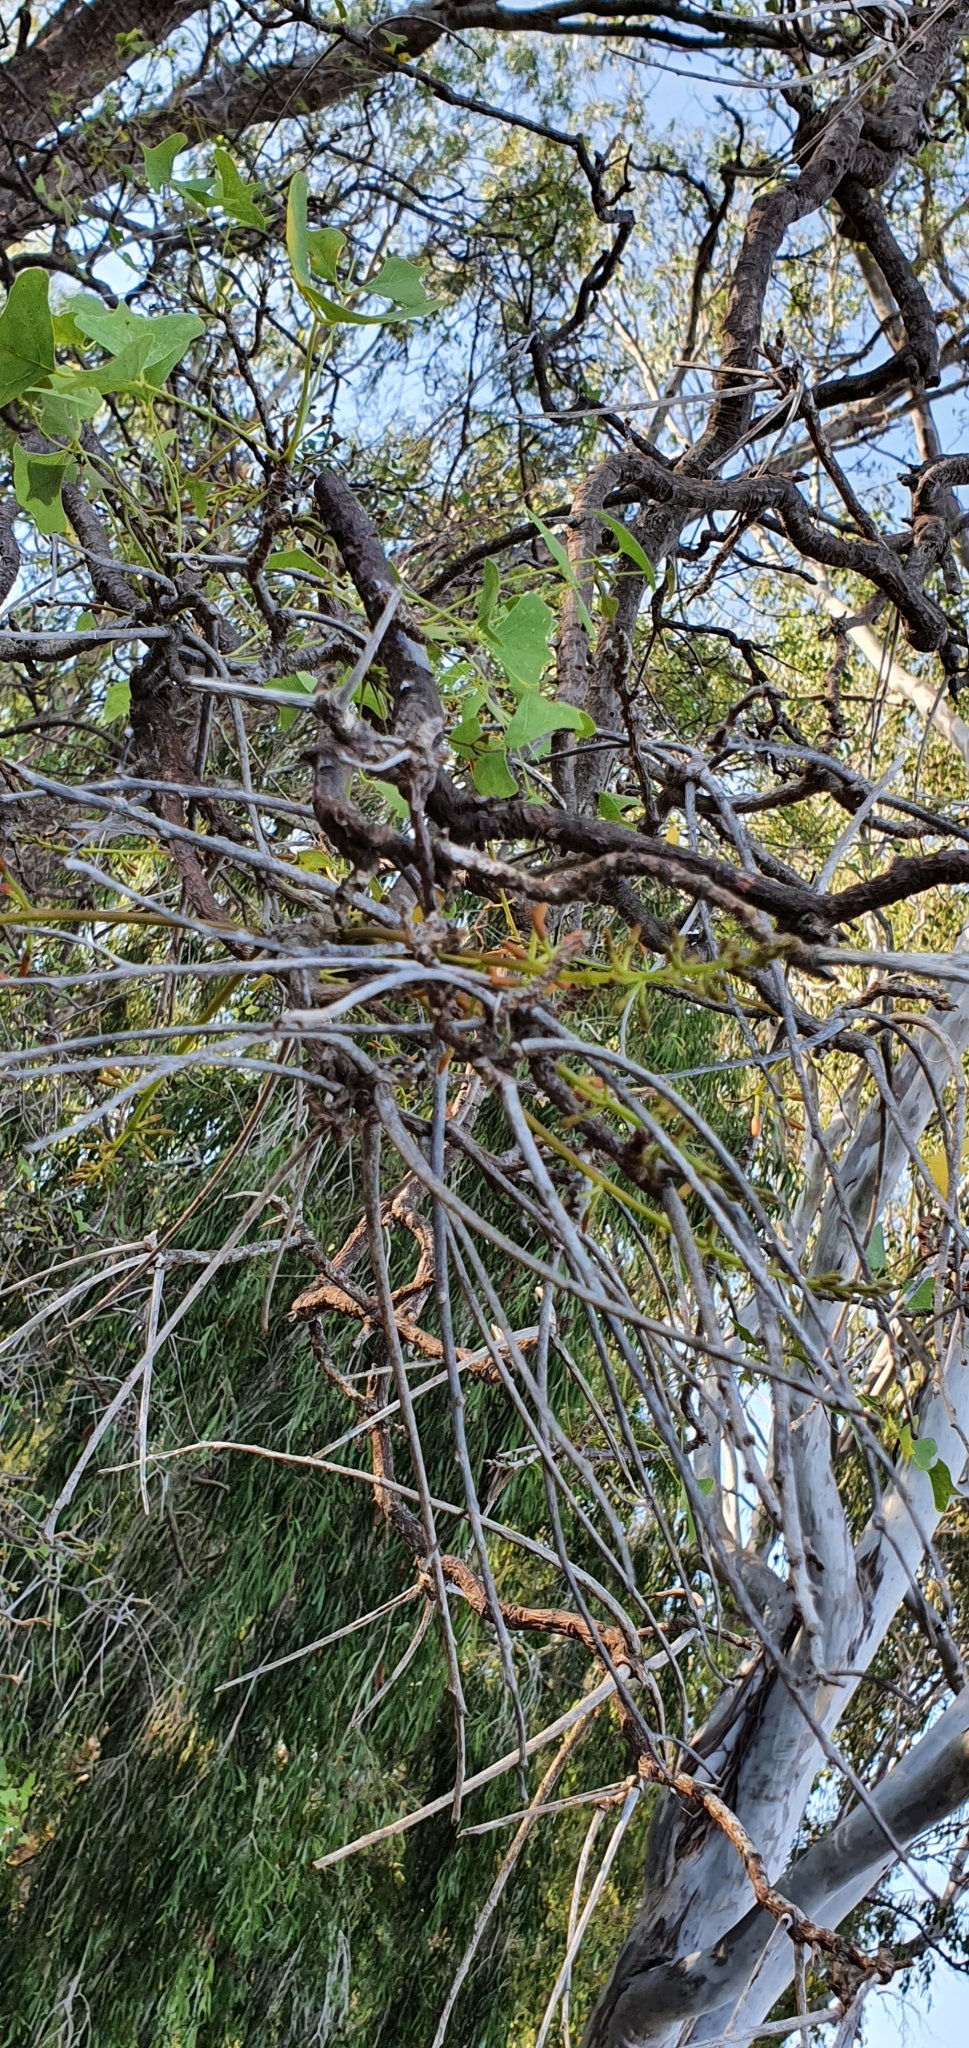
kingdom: Plantae
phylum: Tracheophyta
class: Magnoliopsida
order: Fabales
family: Fabaceae
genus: Erythrina
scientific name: Erythrina vespertilio
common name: Bat-wing coral tree
